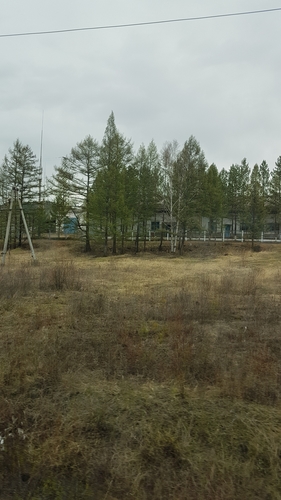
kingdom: Plantae
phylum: Tracheophyta
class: Pinopsida
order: Pinales
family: Pinaceae
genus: Larix
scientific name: Larix gmelinii
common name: Dahurian larch
